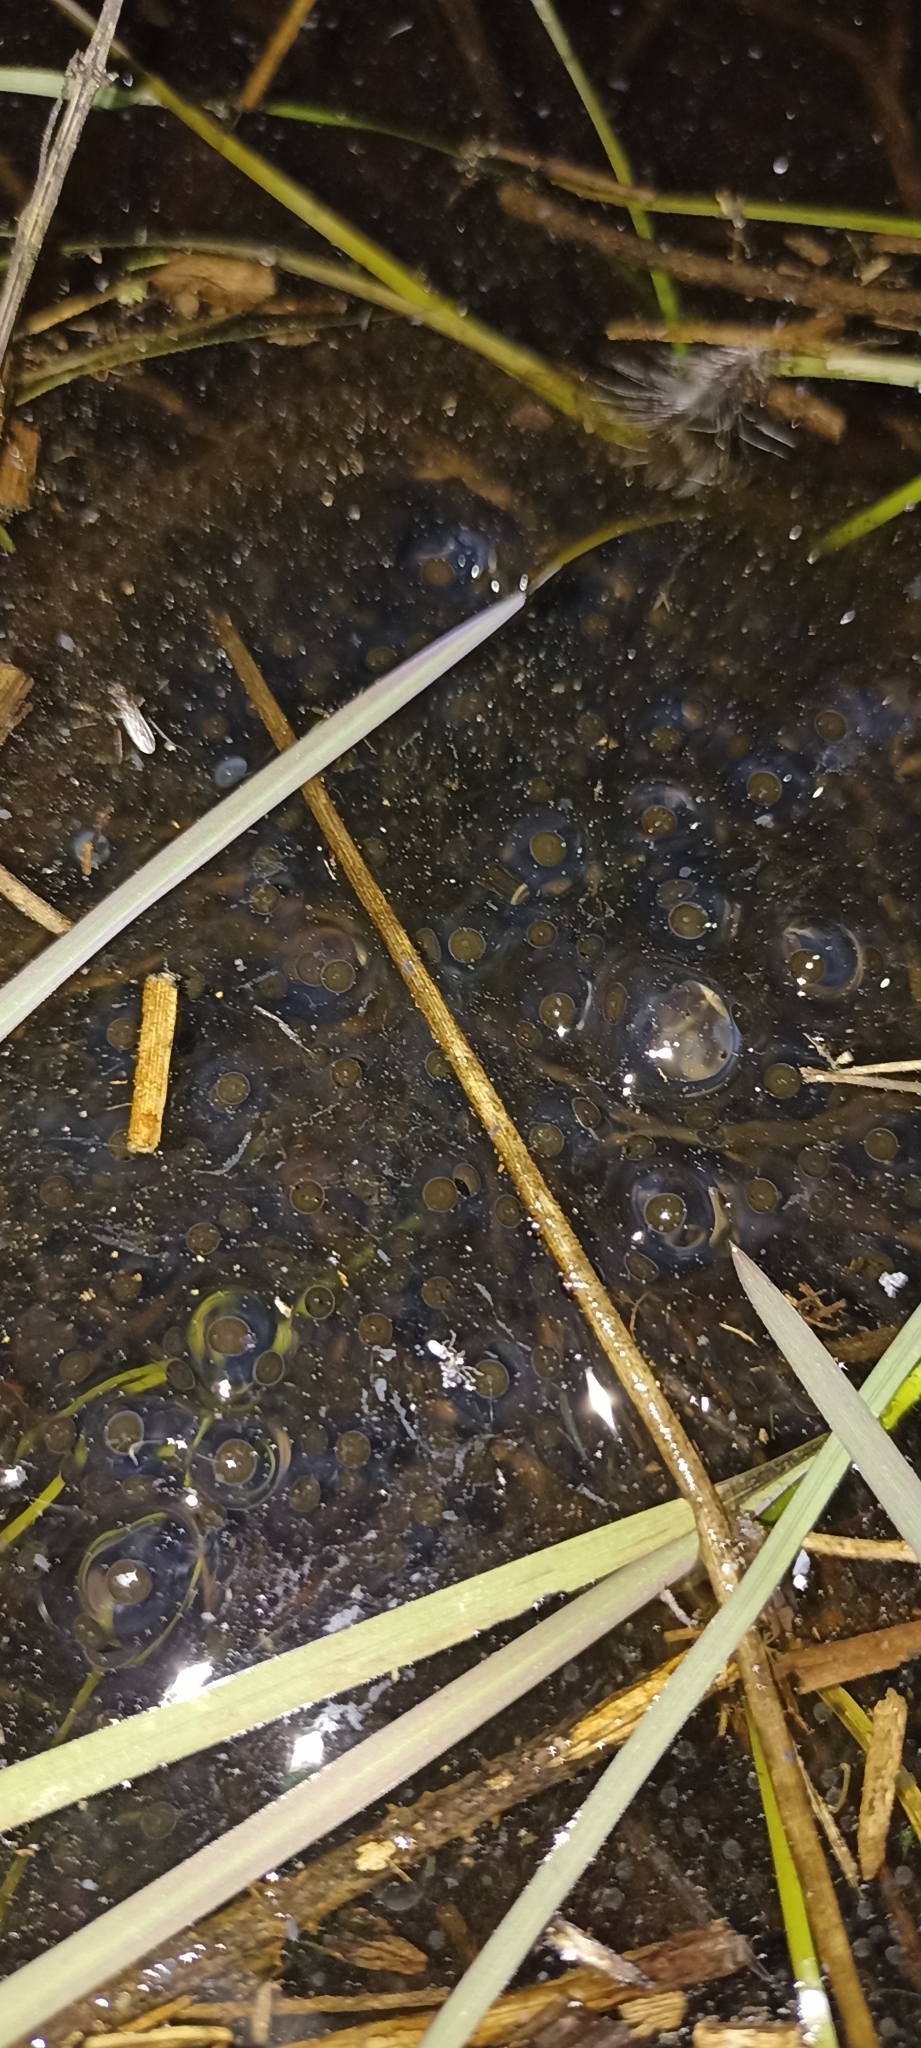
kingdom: Animalia
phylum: Chordata
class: Amphibia
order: Anura
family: Ranidae
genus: Rana
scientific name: Rana dalmatina
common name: Agile frog
